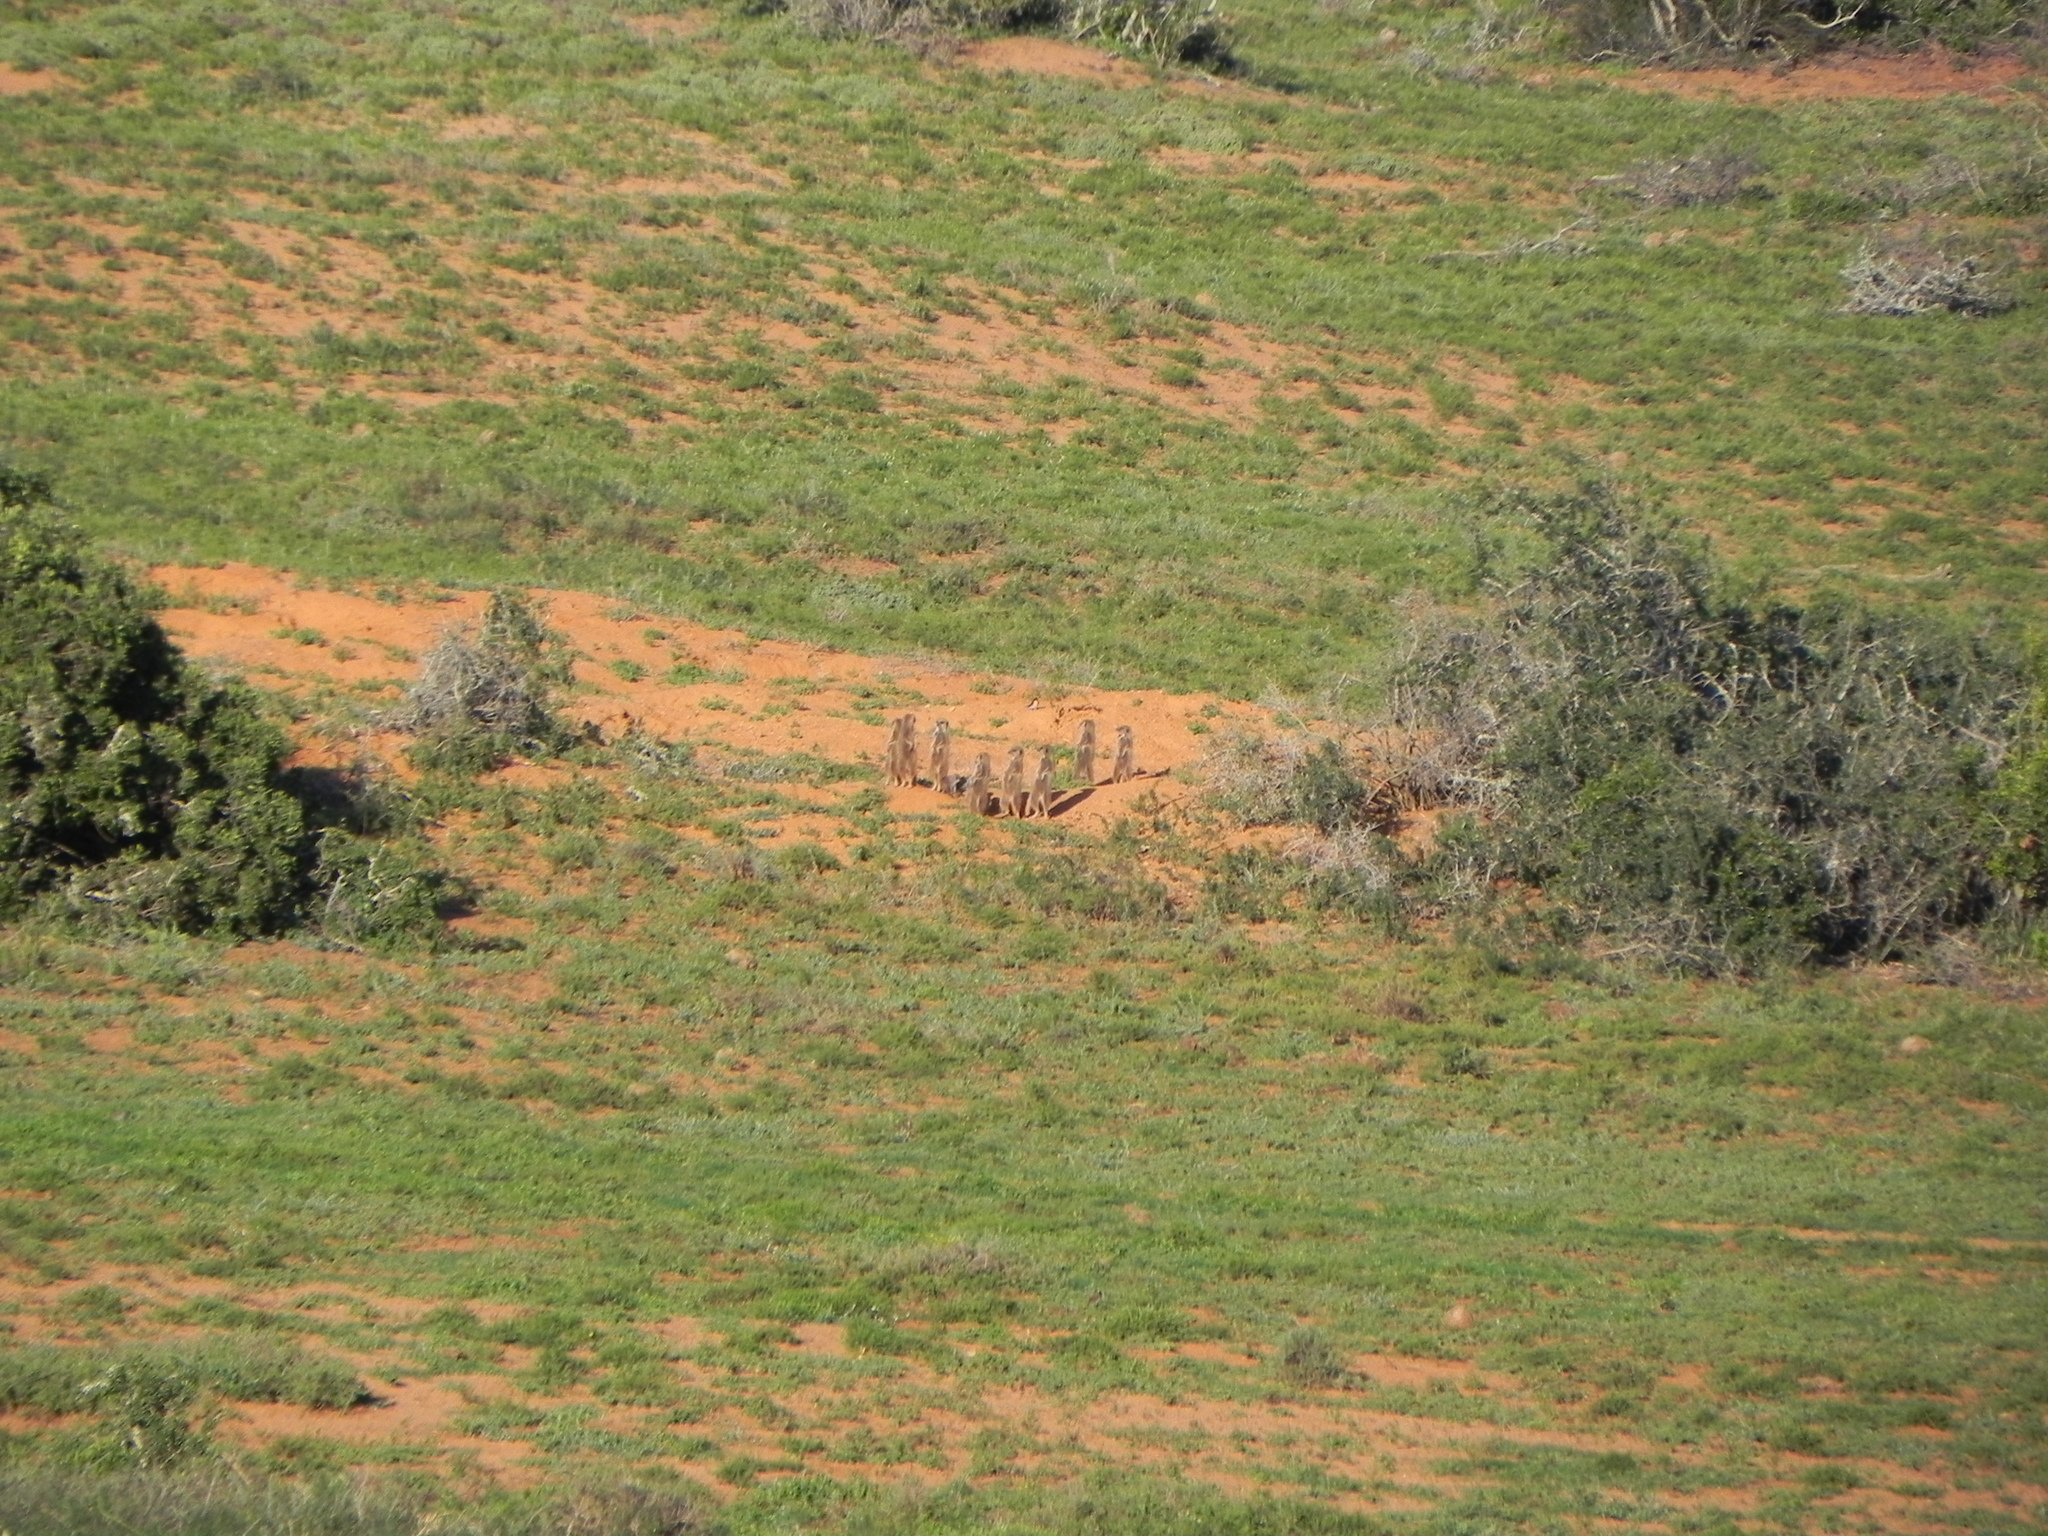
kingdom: Animalia
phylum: Chordata
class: Mammalia
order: Carnivora
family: Herpestidae
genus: Suricata
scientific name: Suricata suricatta
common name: Meerkat
